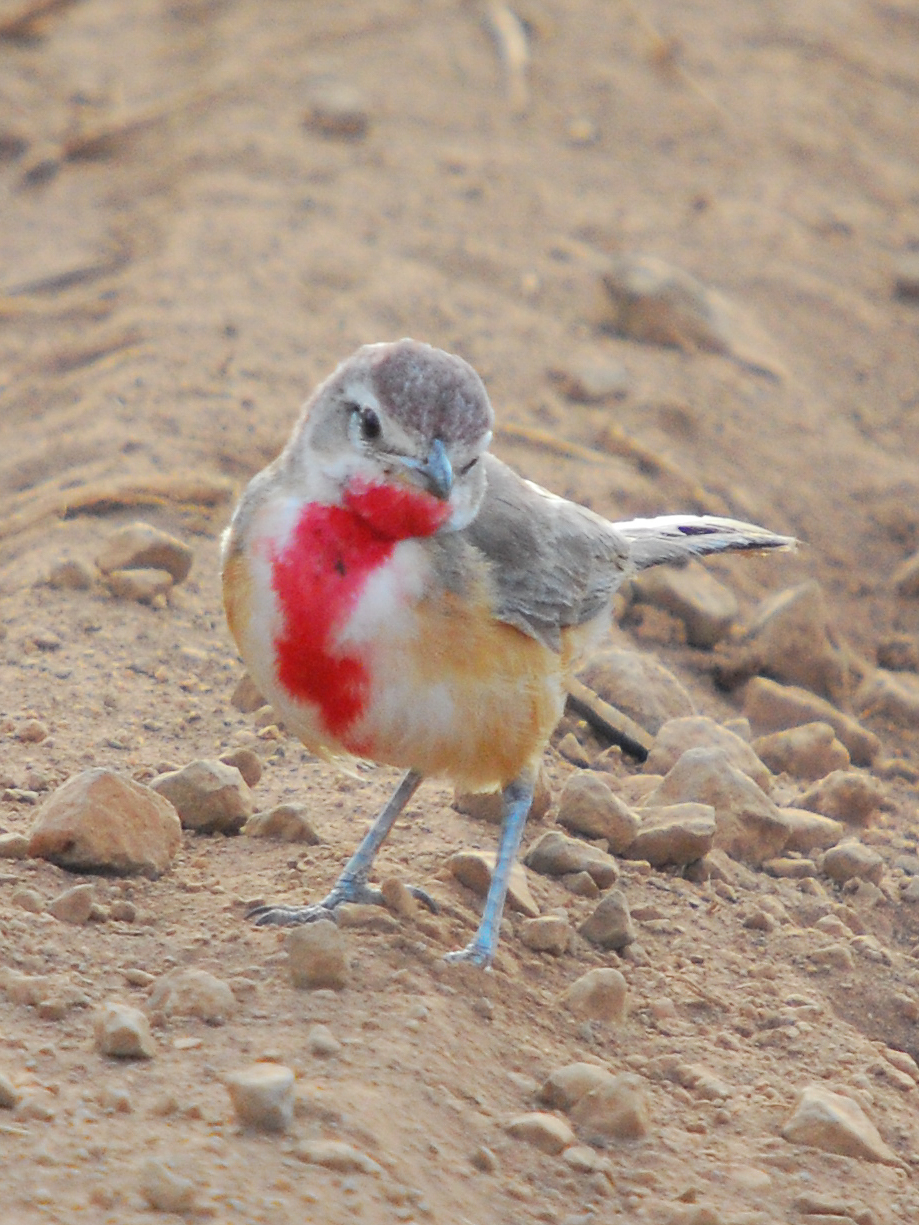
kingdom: Animalia
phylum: Chordata
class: Aves
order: Passeriformes
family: Malaconotidae
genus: Telophorus
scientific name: Telophorus cruentus
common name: Rosy-patched bushshrike
